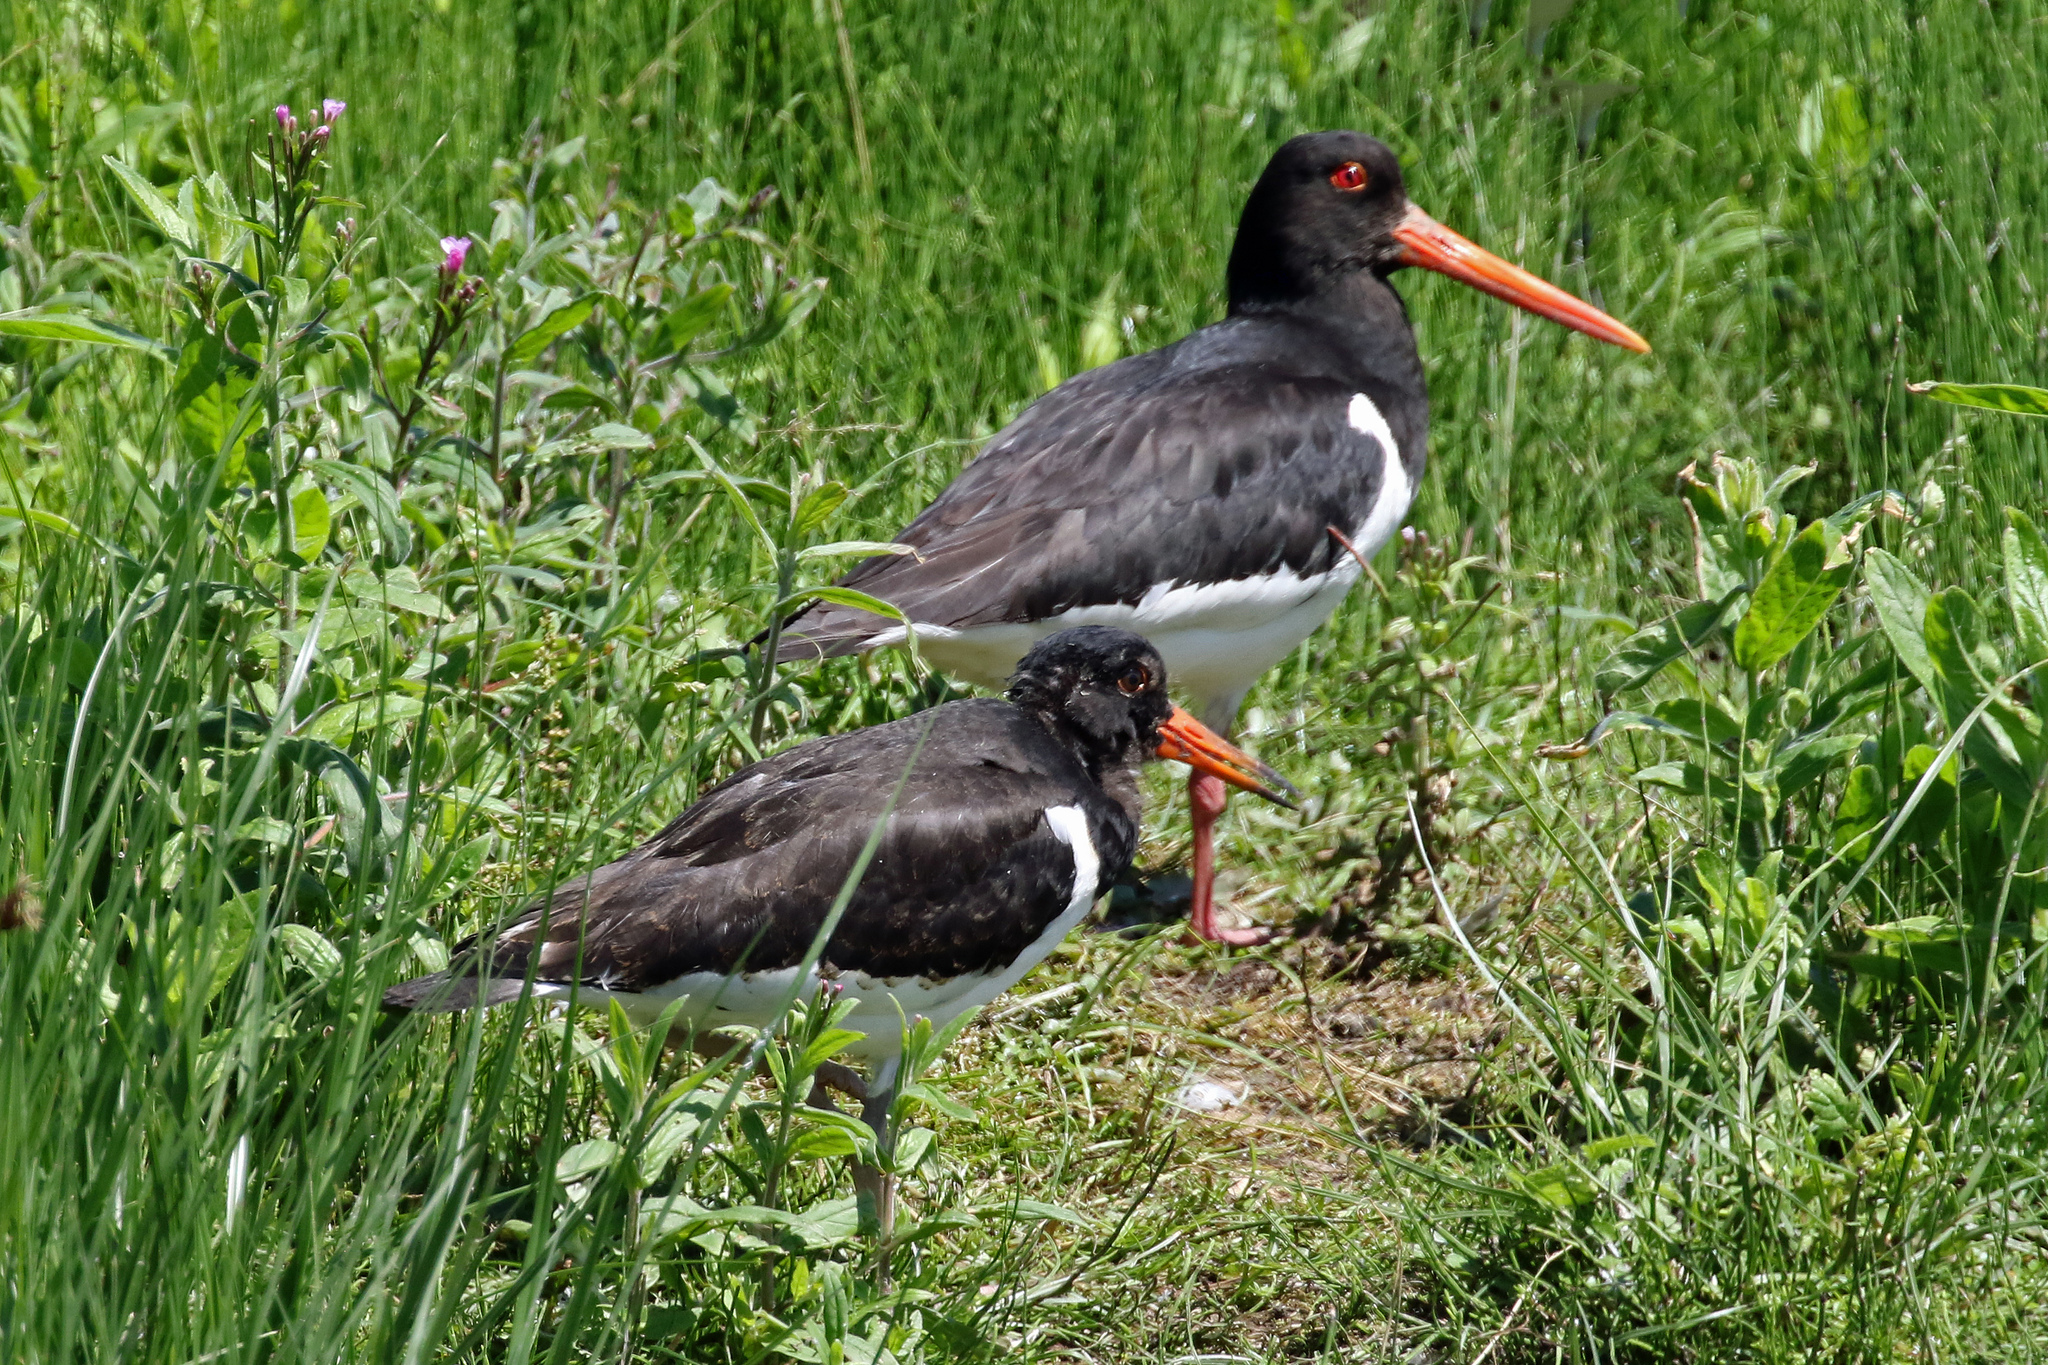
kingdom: Animalia
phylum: Chordata
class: Aves
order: Charadriiformes
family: Haematopodidae
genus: Haematopus
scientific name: Haematopus ostralegus
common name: Eurasian oystercatcher
